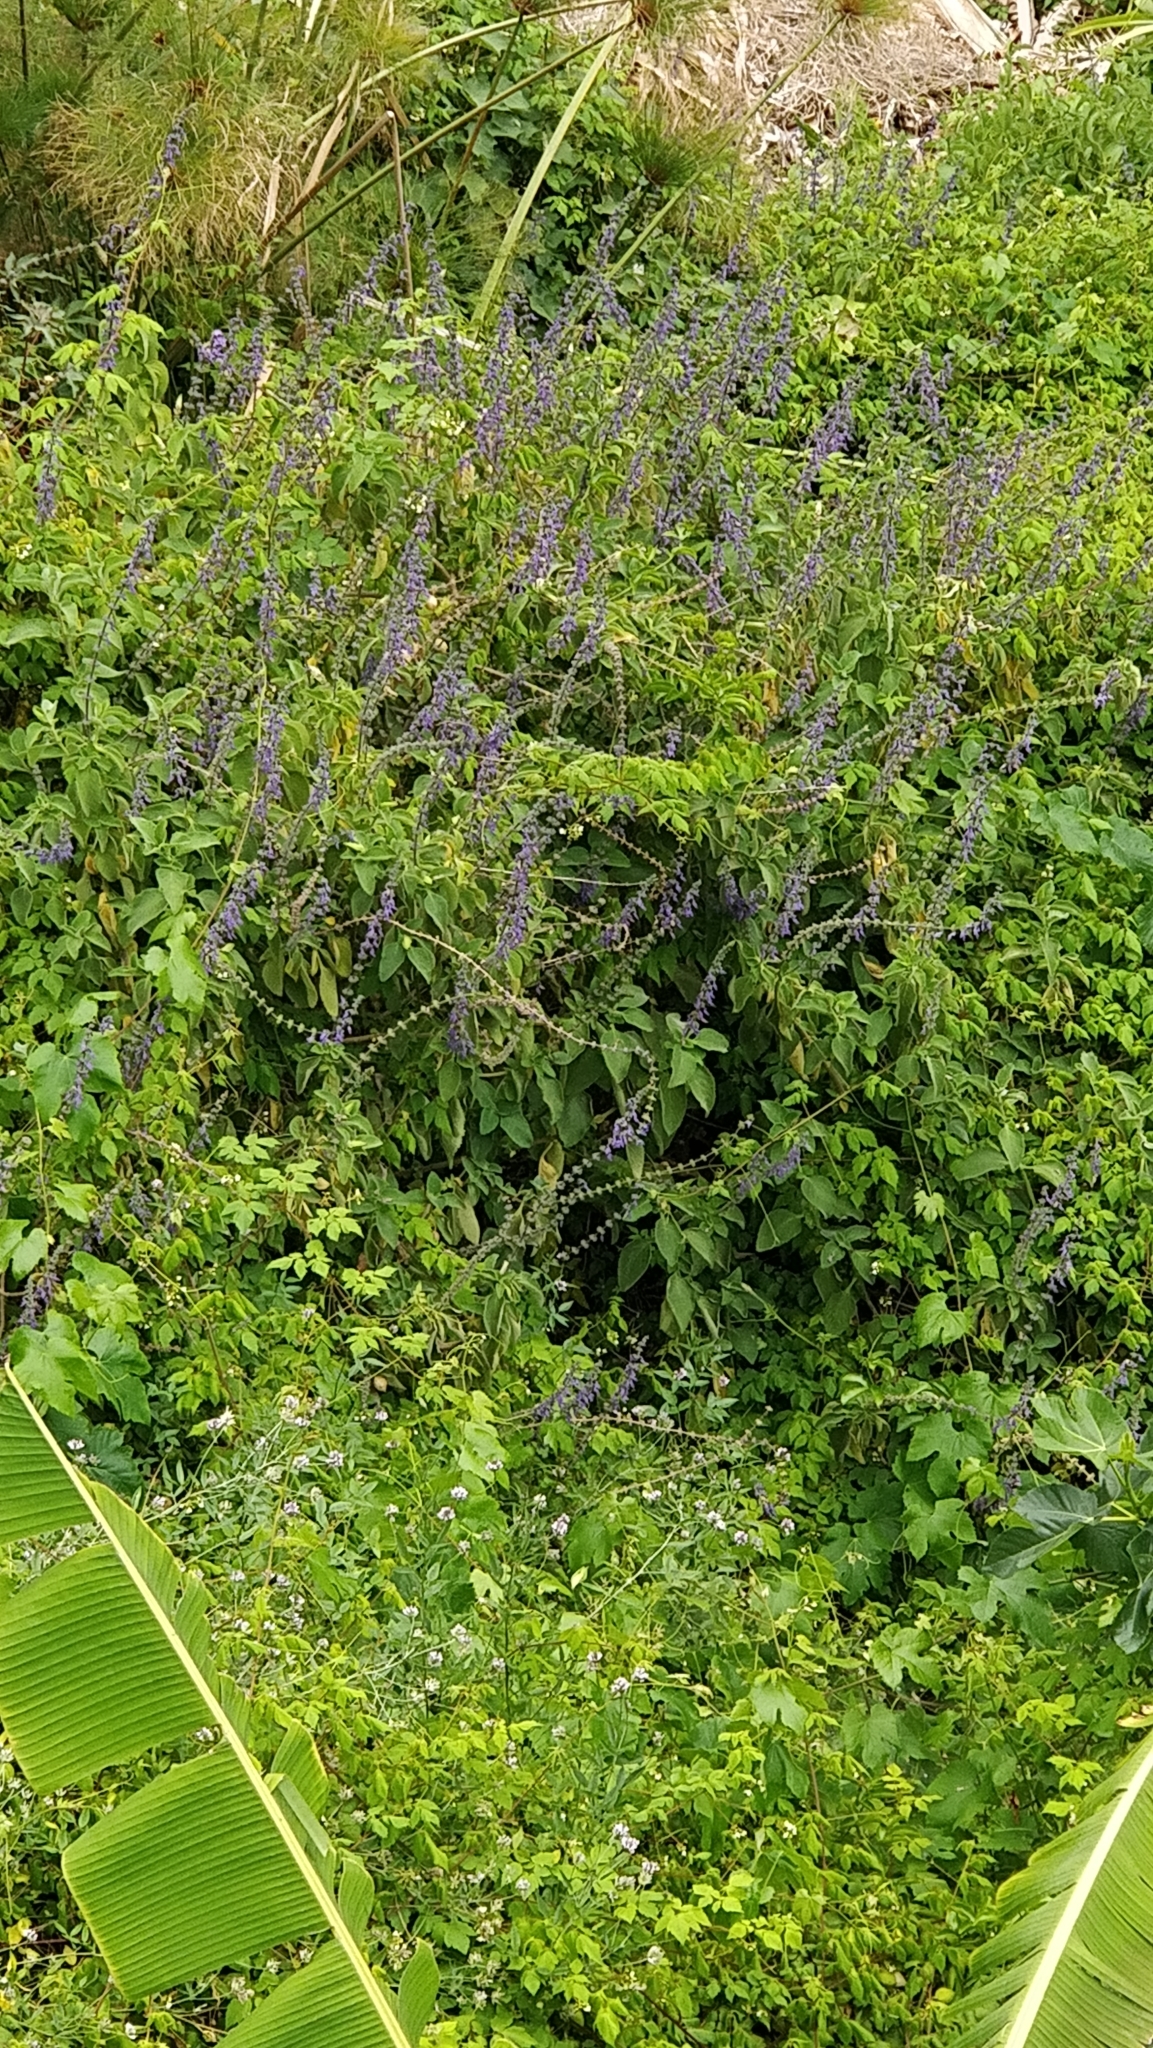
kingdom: Plantae
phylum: Tracheophyta
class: Magnoliopsida
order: Lamiales
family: Lamiaceae
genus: Coleus
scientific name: Coleus barbatus
